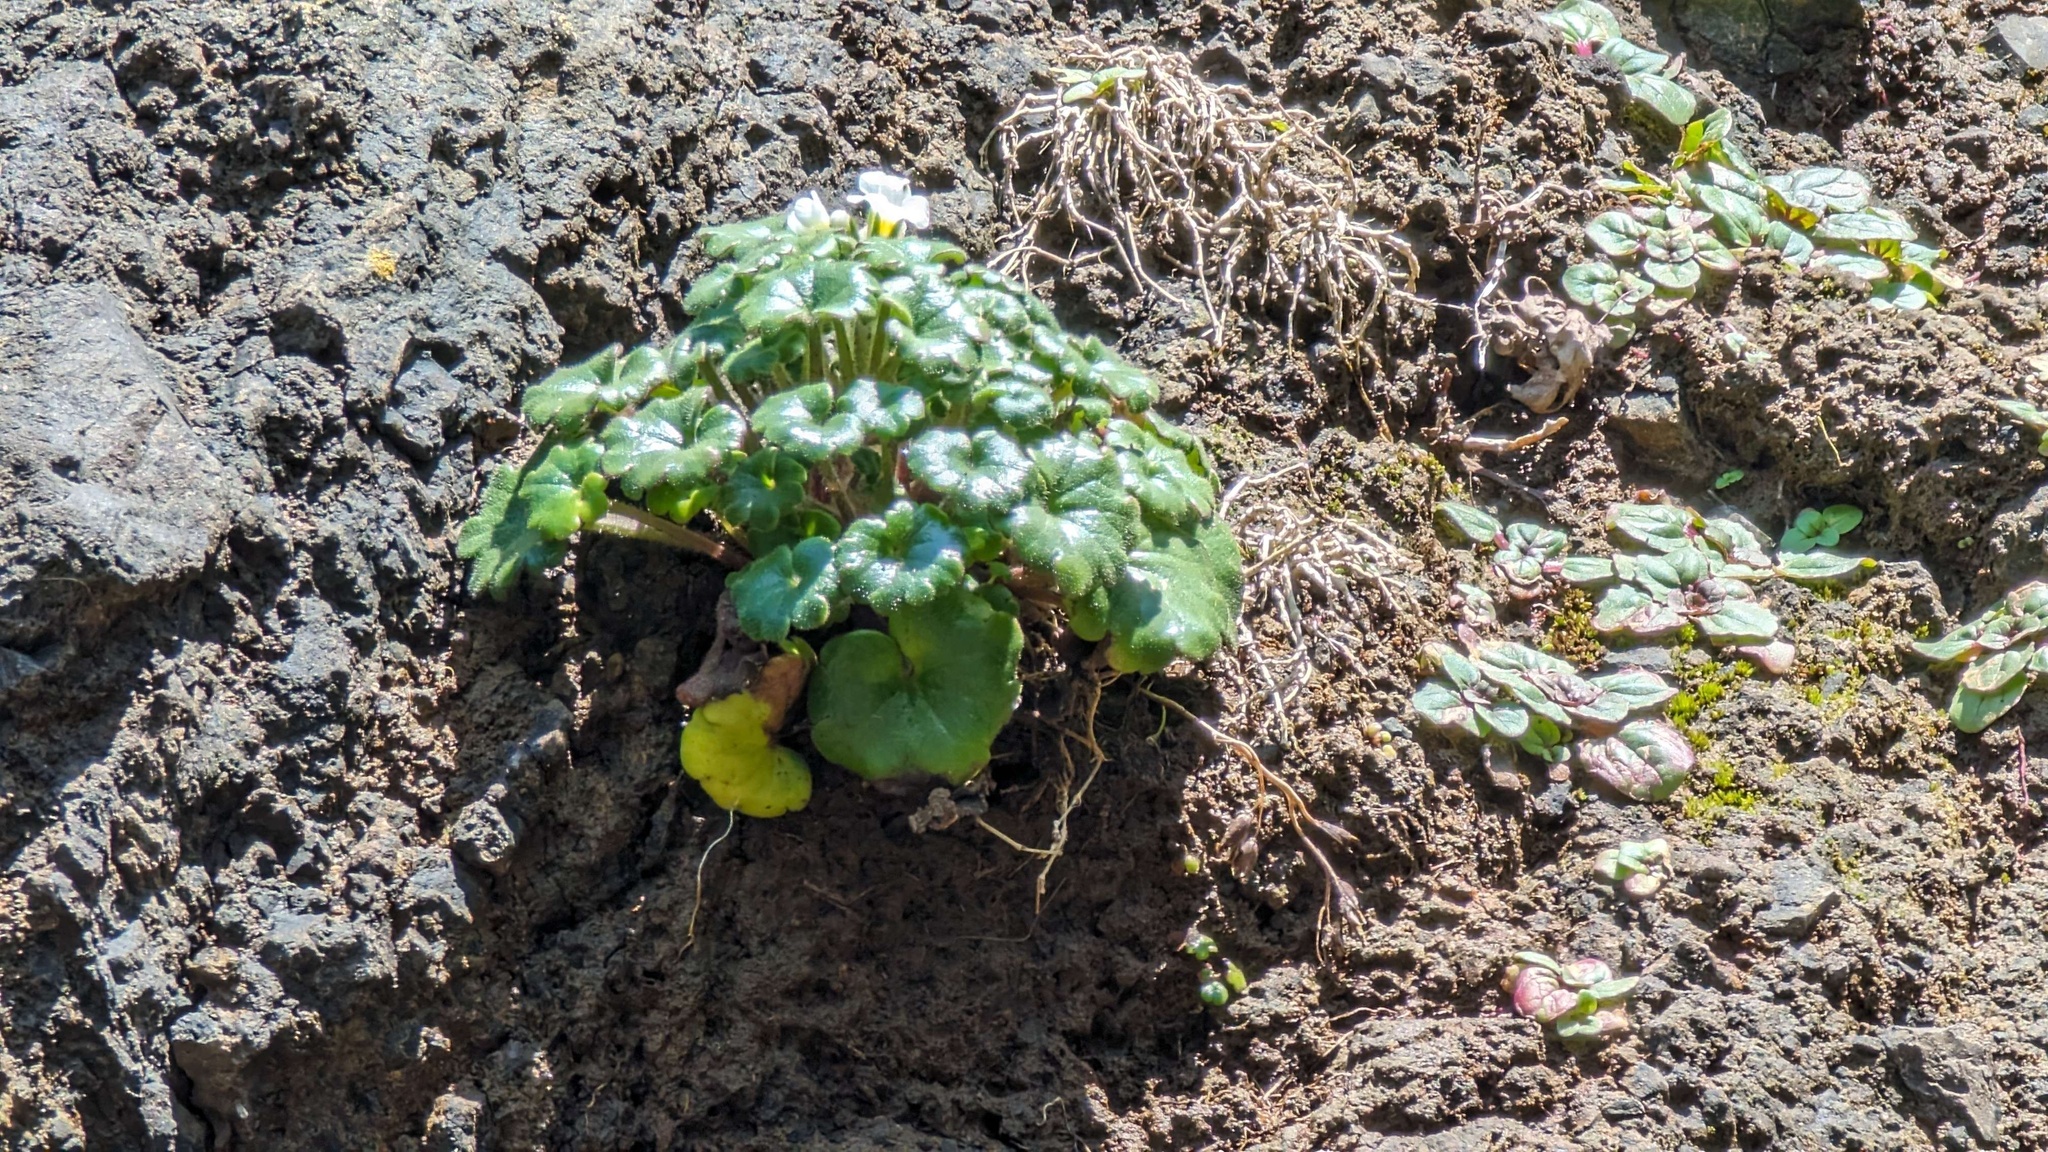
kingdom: Plantae
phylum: Tracheophyta
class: Magnoliopsida
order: Boraginales
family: Hydrophyllaceae
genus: Romanzoffia
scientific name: Romanzoffia tracyi
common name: Tracy's mistmaid
